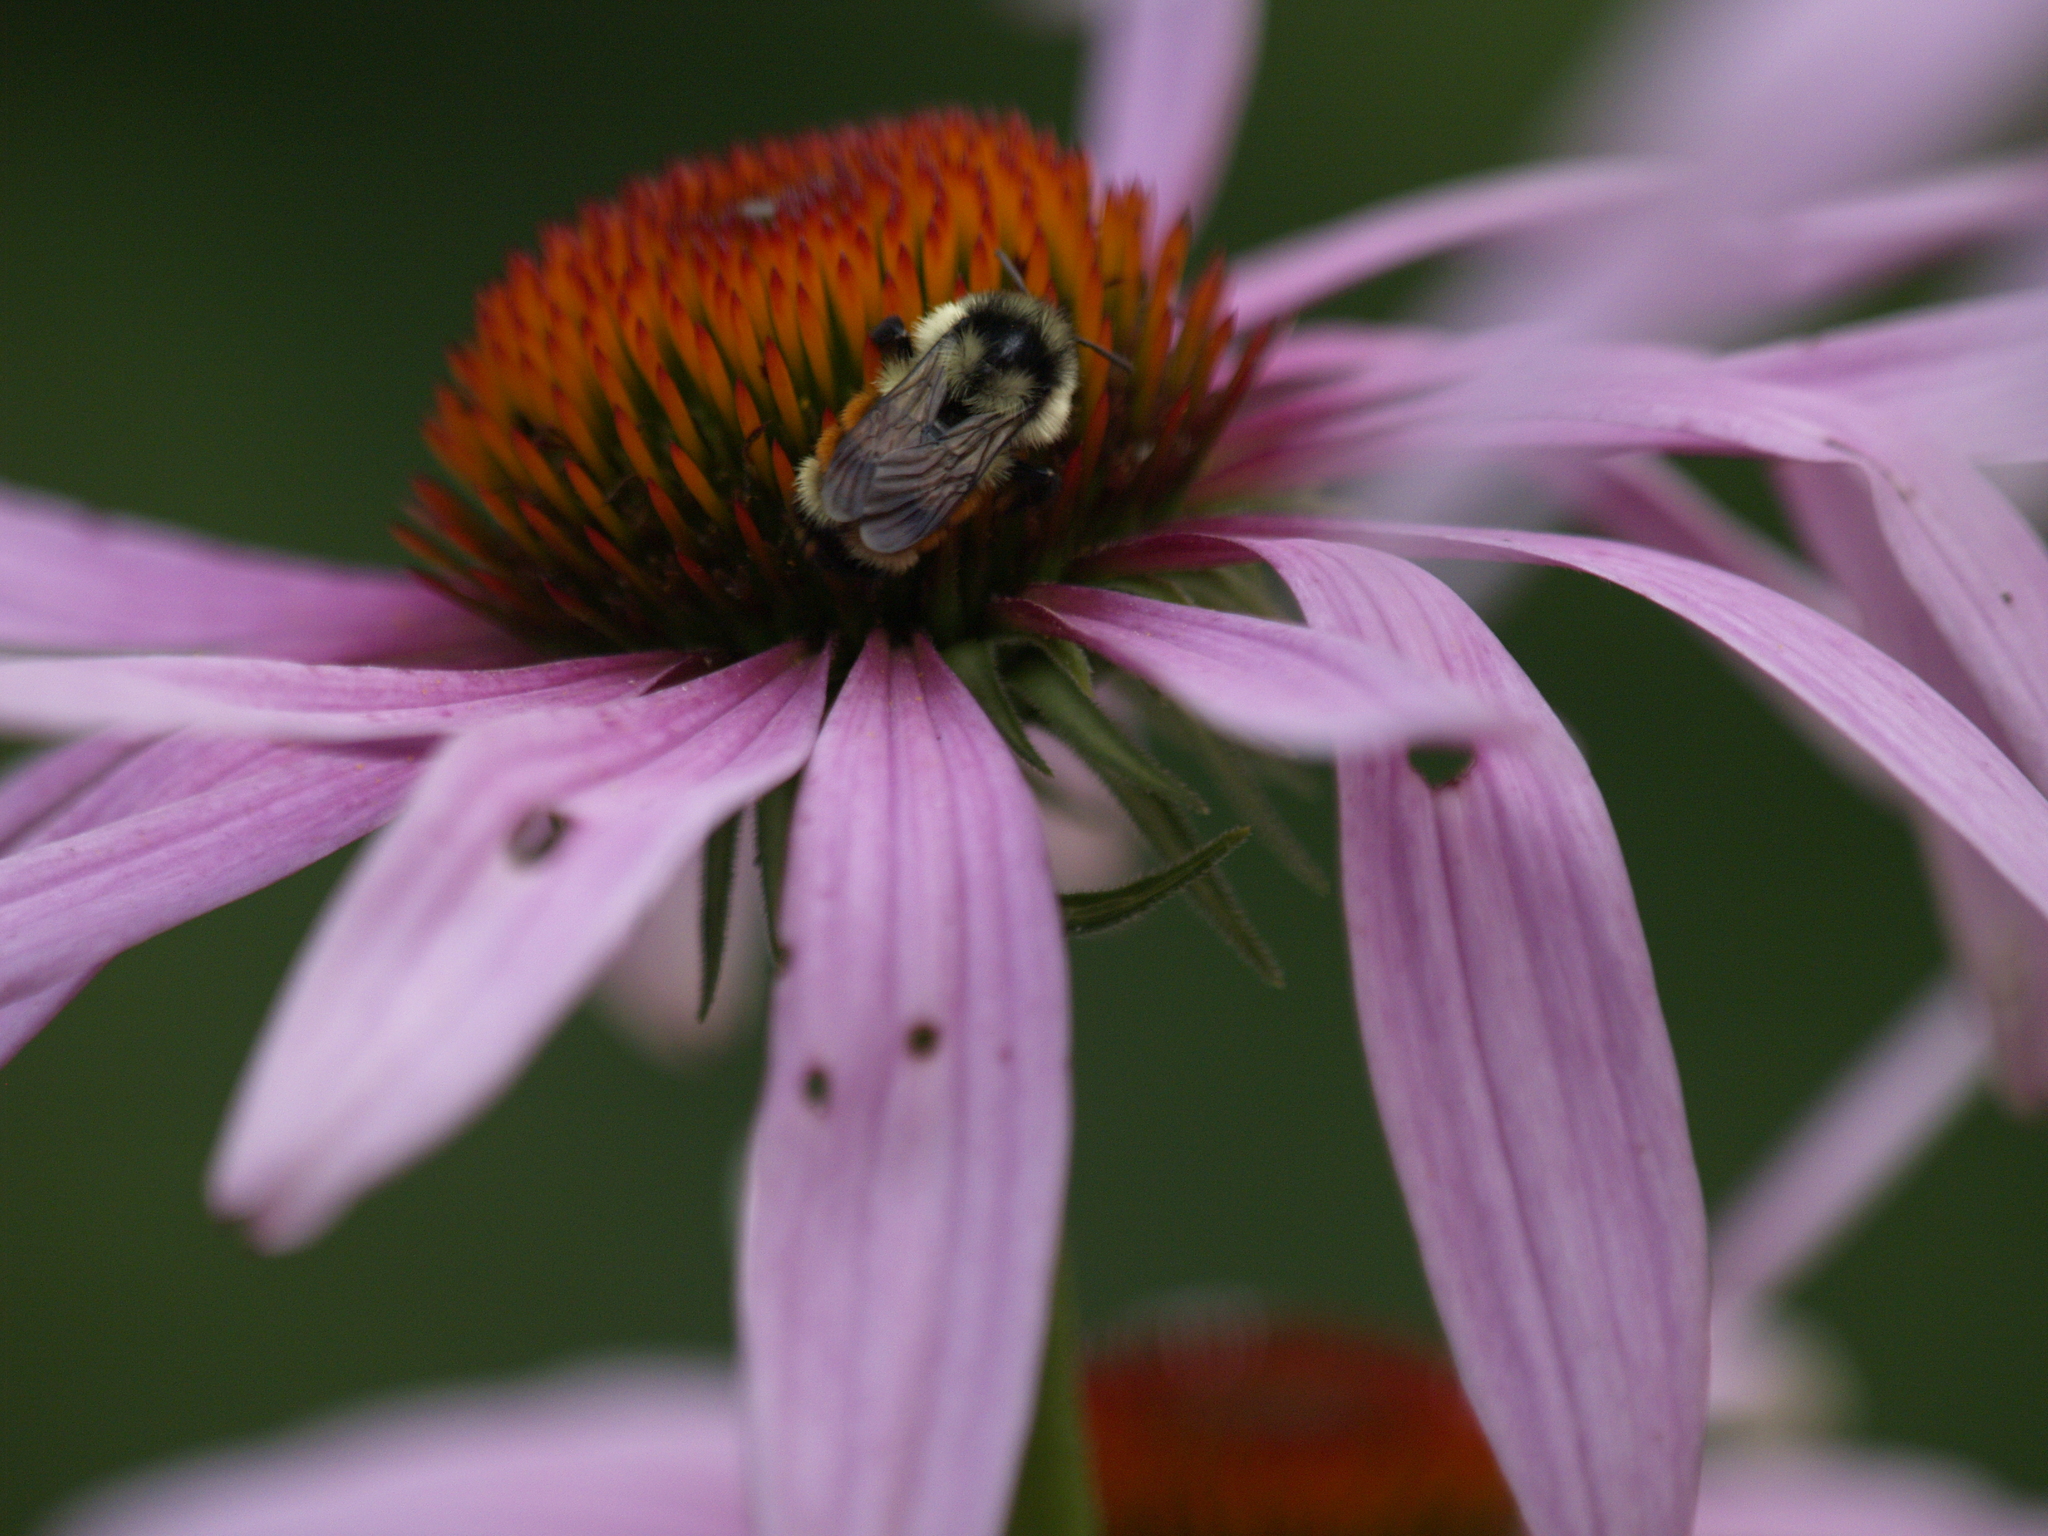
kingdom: Animalia
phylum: Arthropoda
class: Insecta
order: Hymenoptera
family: Apidae
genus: Bombus
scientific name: Bombus ternarius
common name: Tri-colored bumble bee
